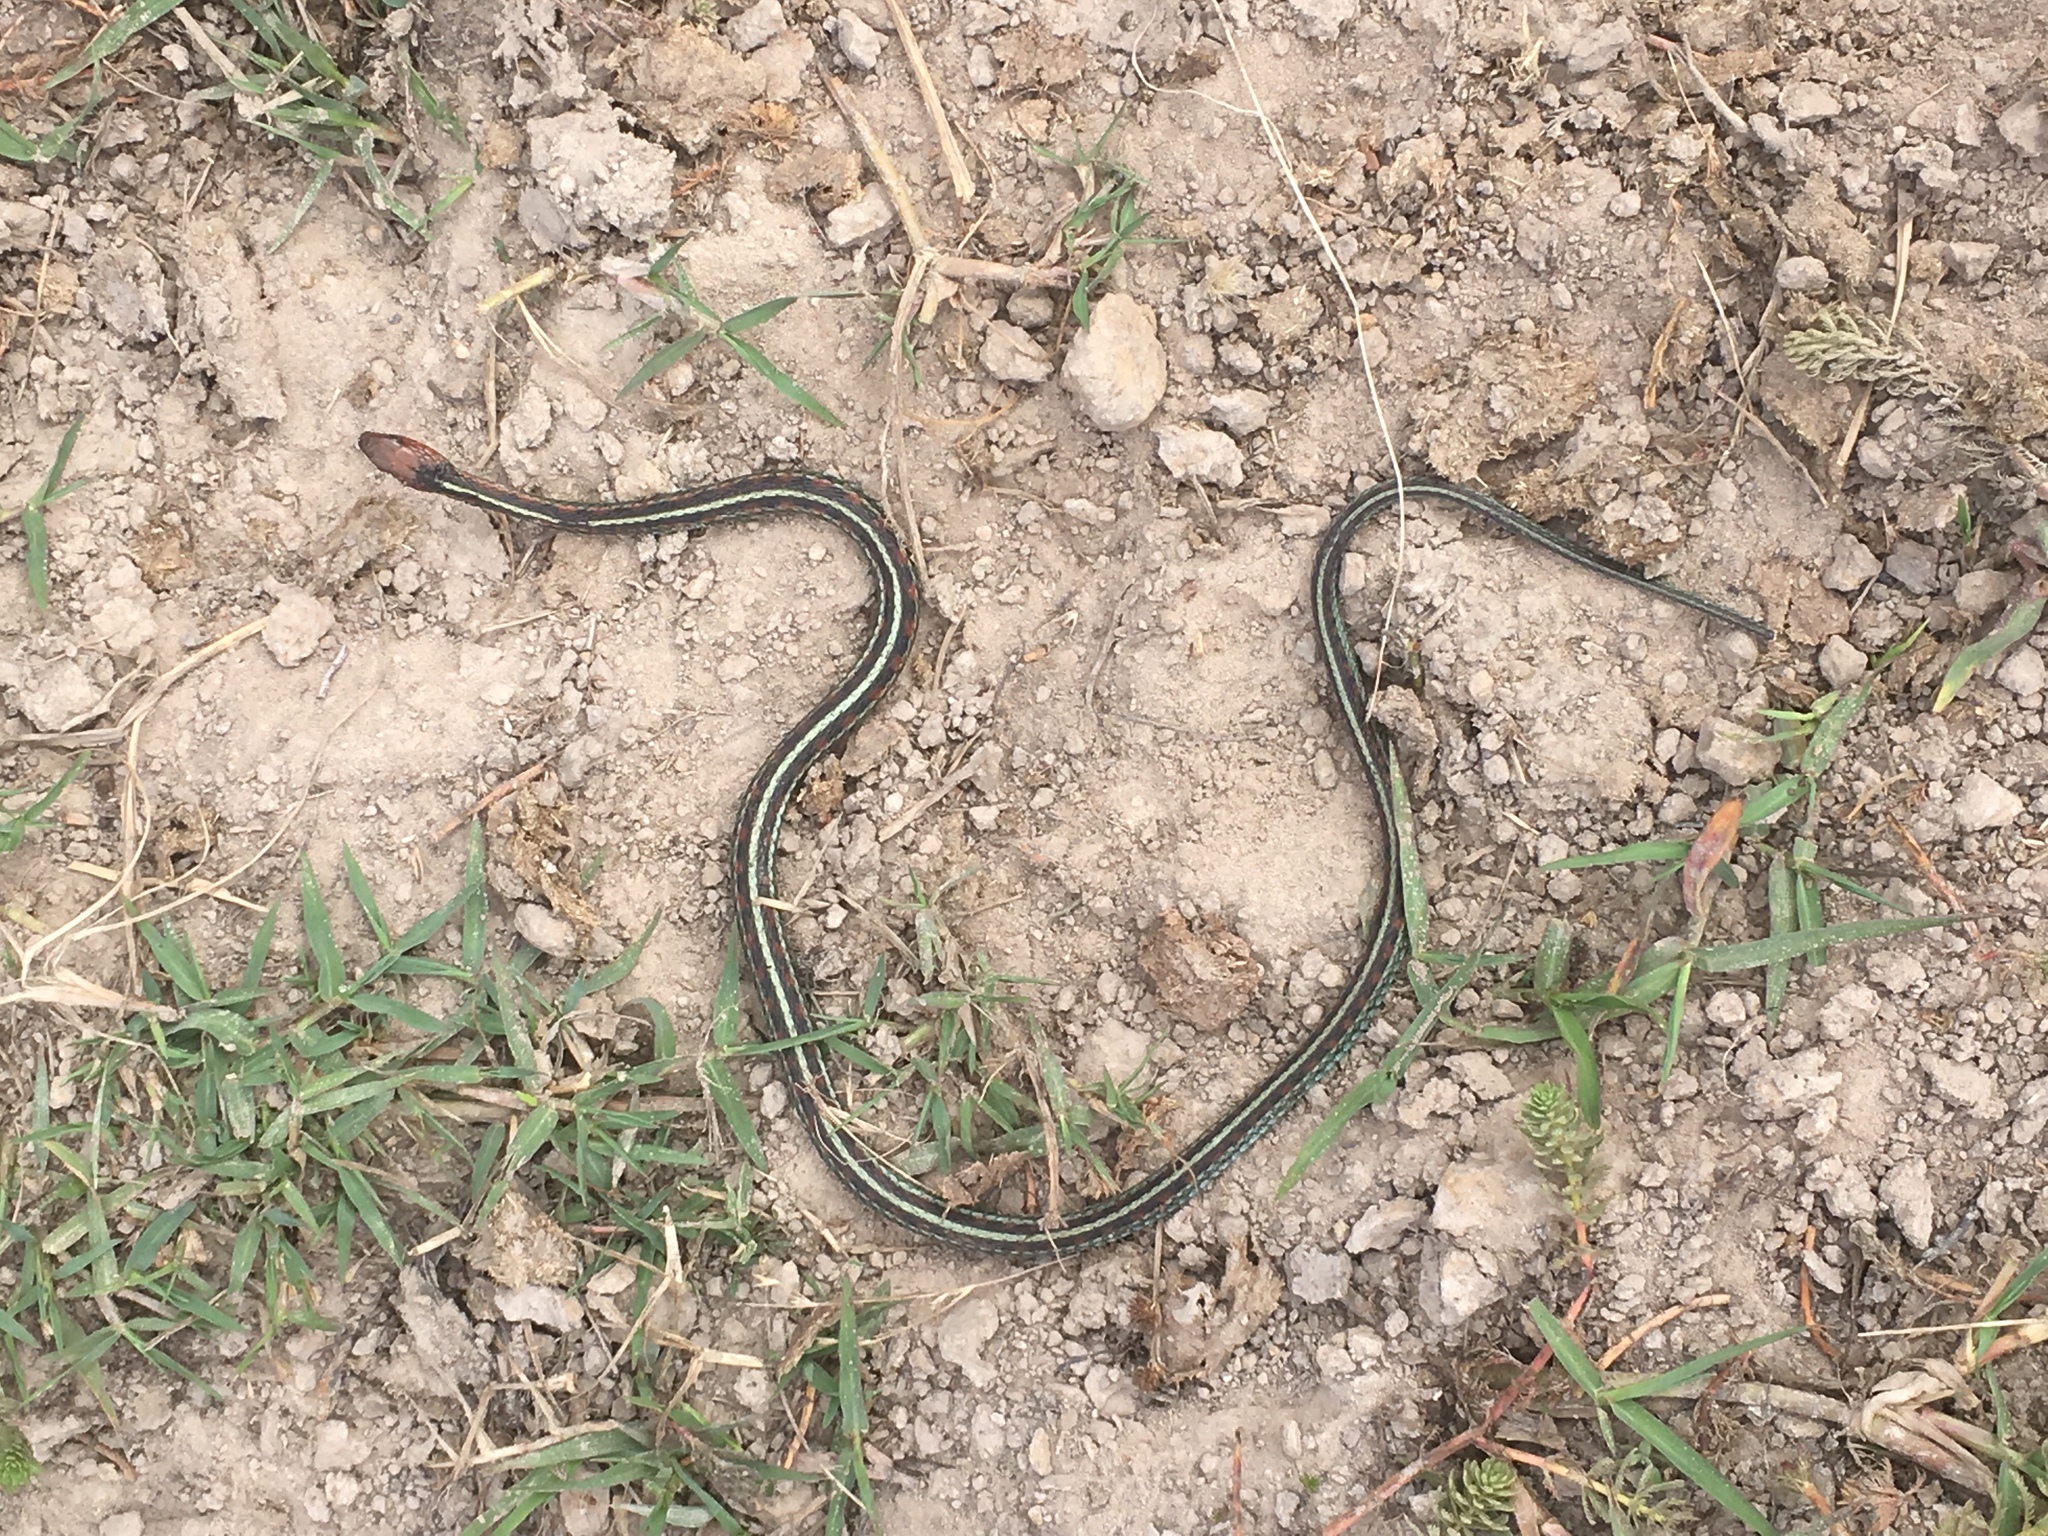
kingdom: Animalia
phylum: Chordata
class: Squamata
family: Colubridae
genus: Thamnophis
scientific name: Thamnophis sirtalis
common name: Common garter snake
